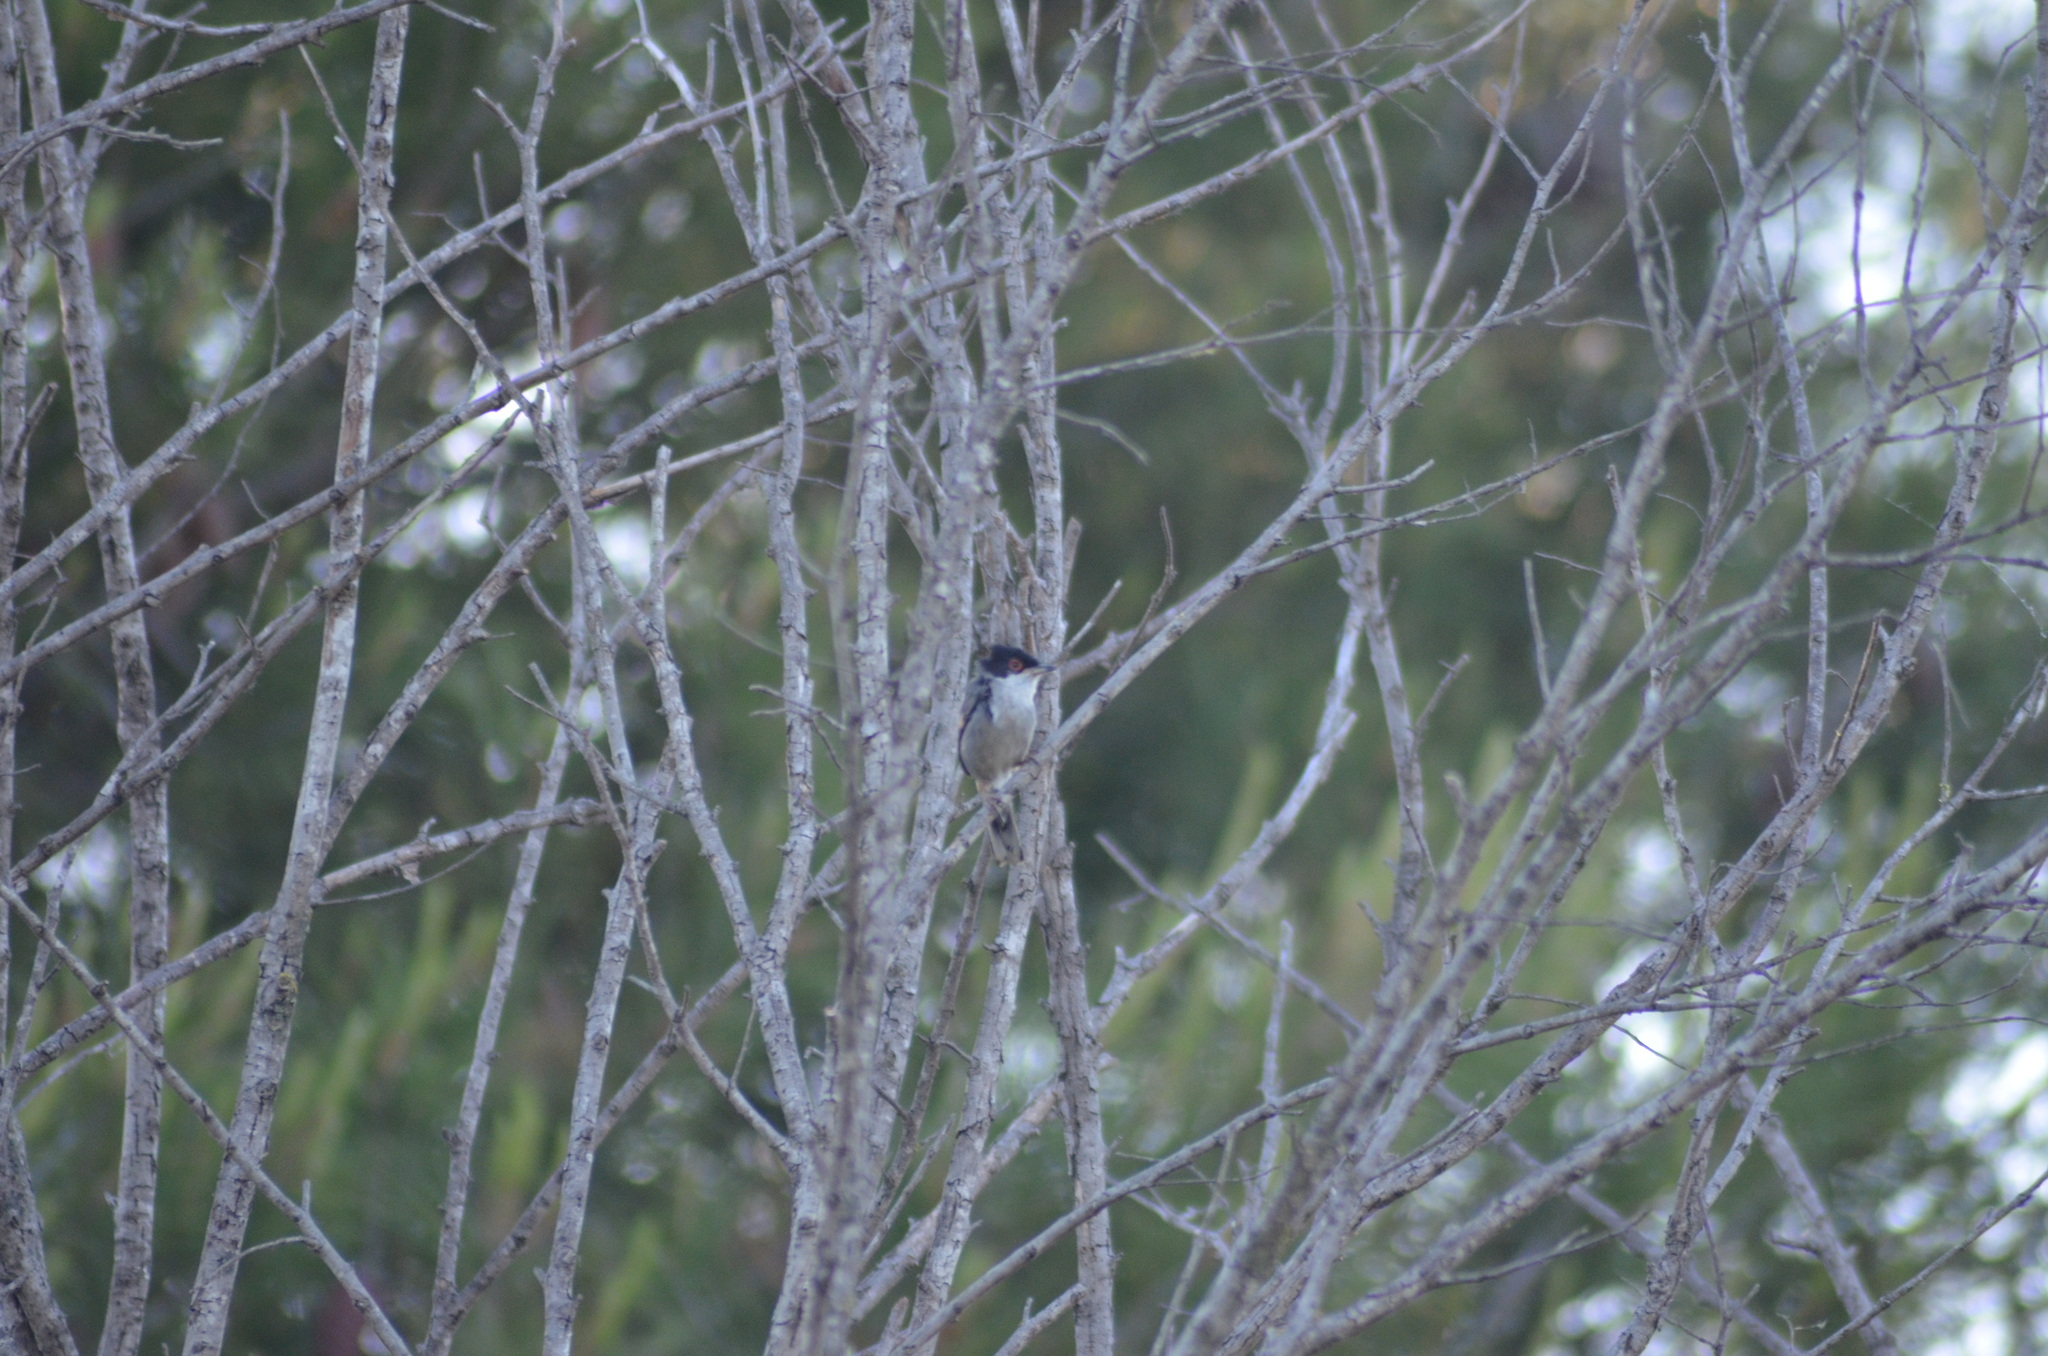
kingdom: Animalia
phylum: Chordata
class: Aves
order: Passeriformes
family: Sylviidae
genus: Curruca
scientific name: Curruca melanocephala
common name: Sardinian warbler
